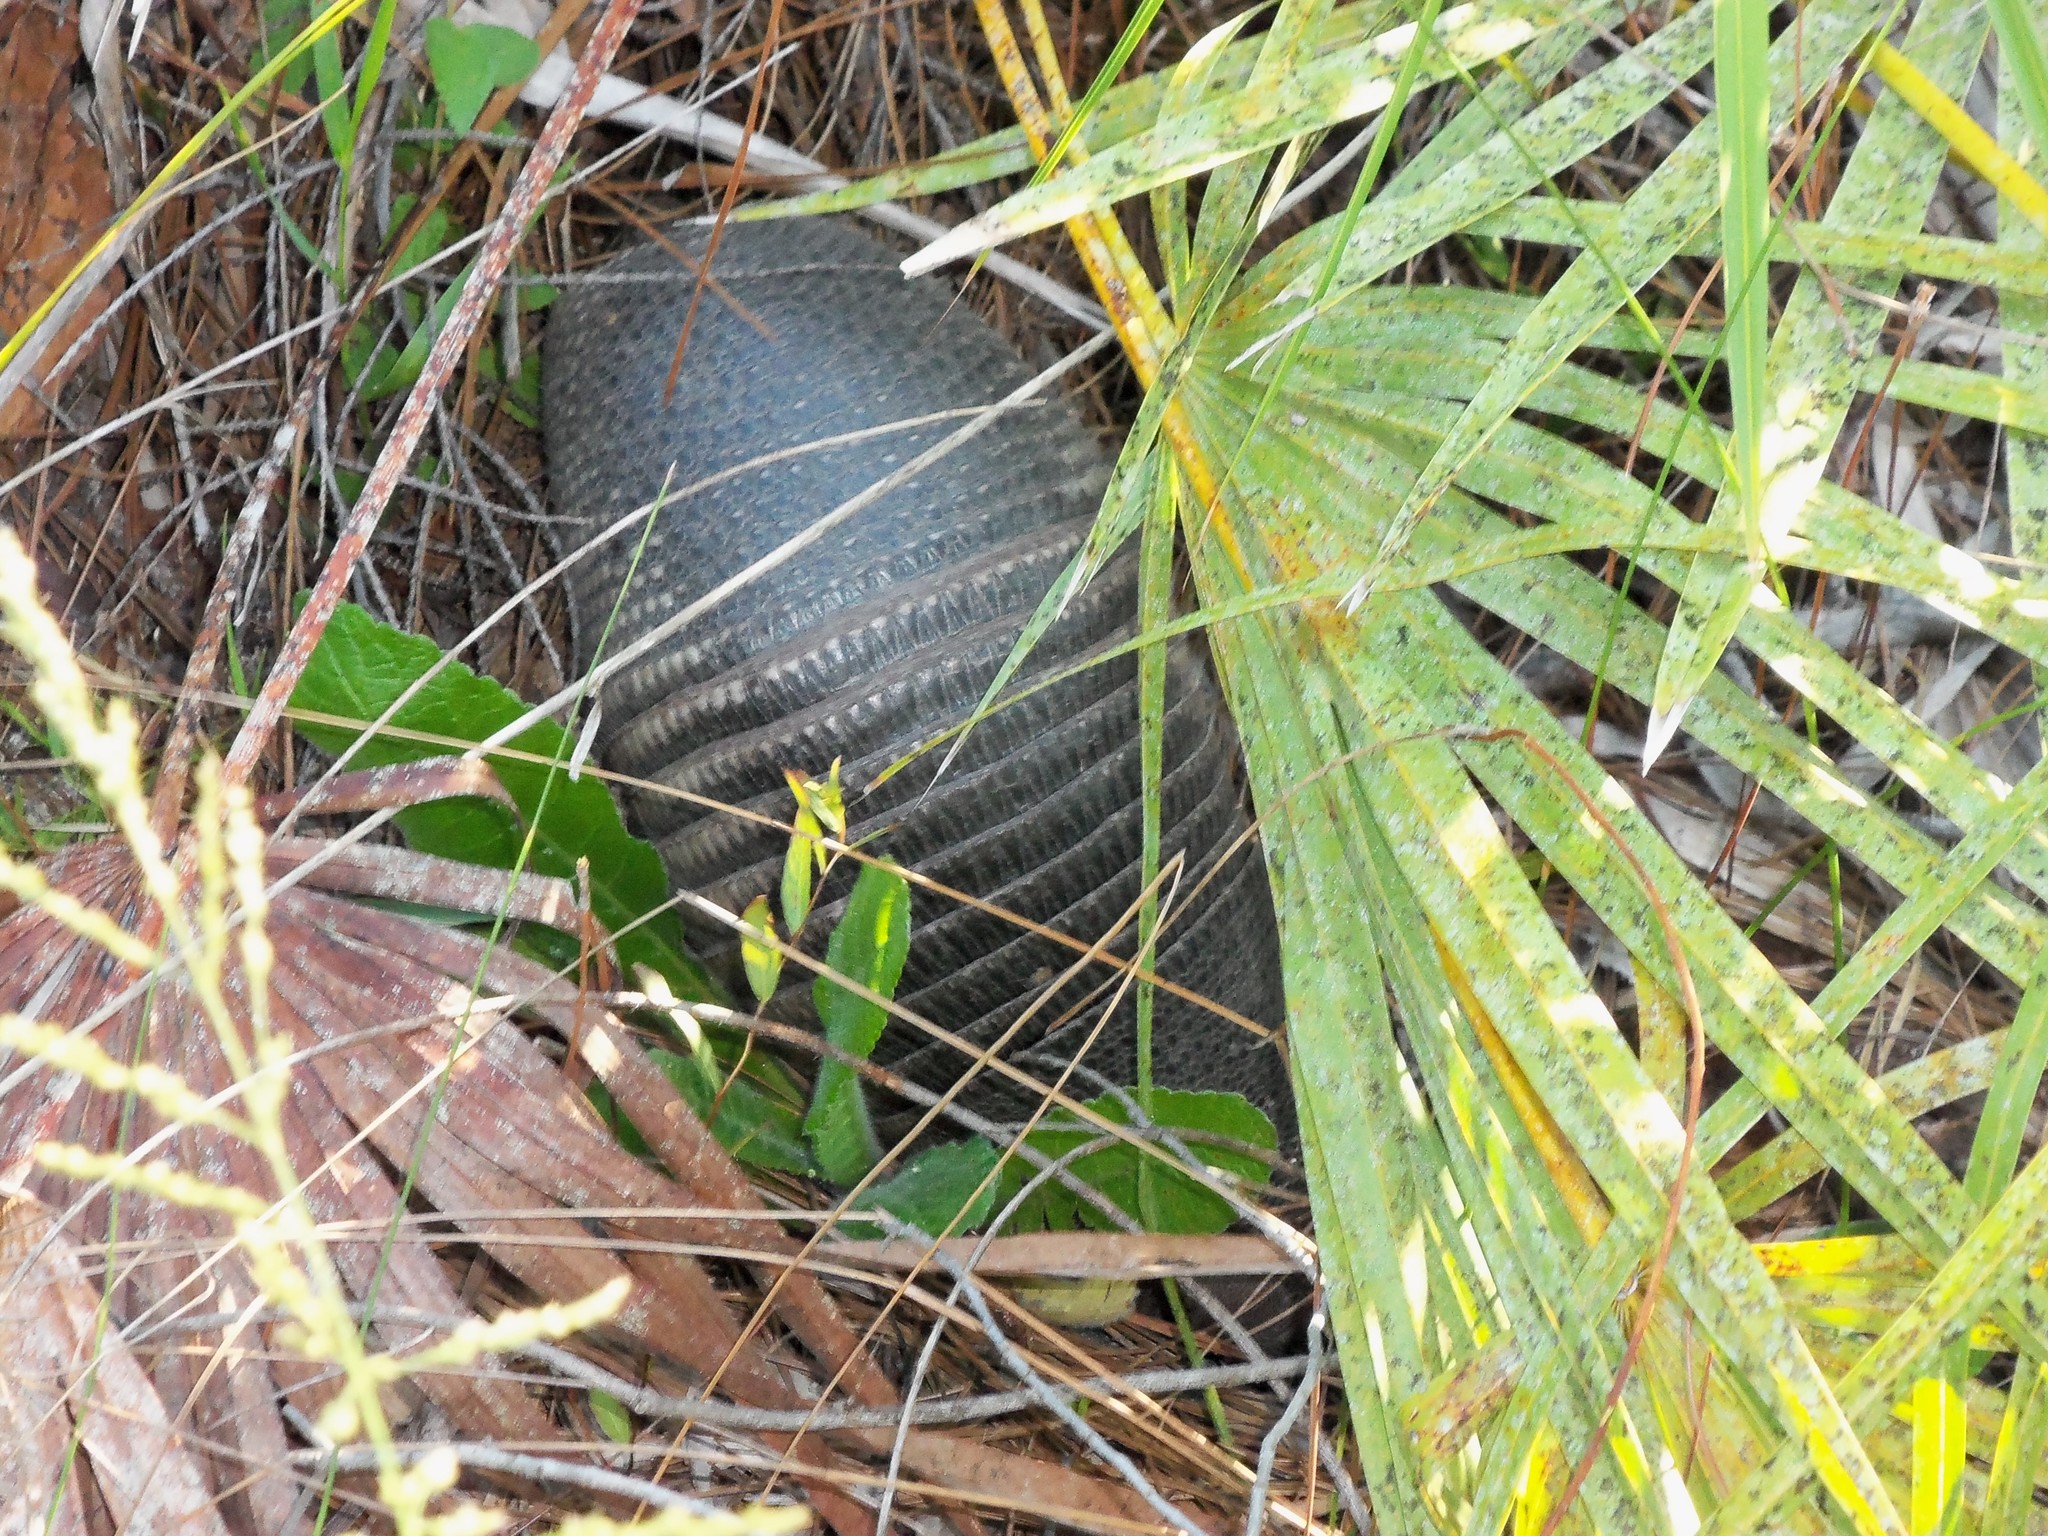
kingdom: Animalia
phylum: Chordata
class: Mammalia
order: Cingulata
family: Dasypodidae
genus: Dasypus
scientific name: Dasypus novemcinctus
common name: Nine-banded armadillo
